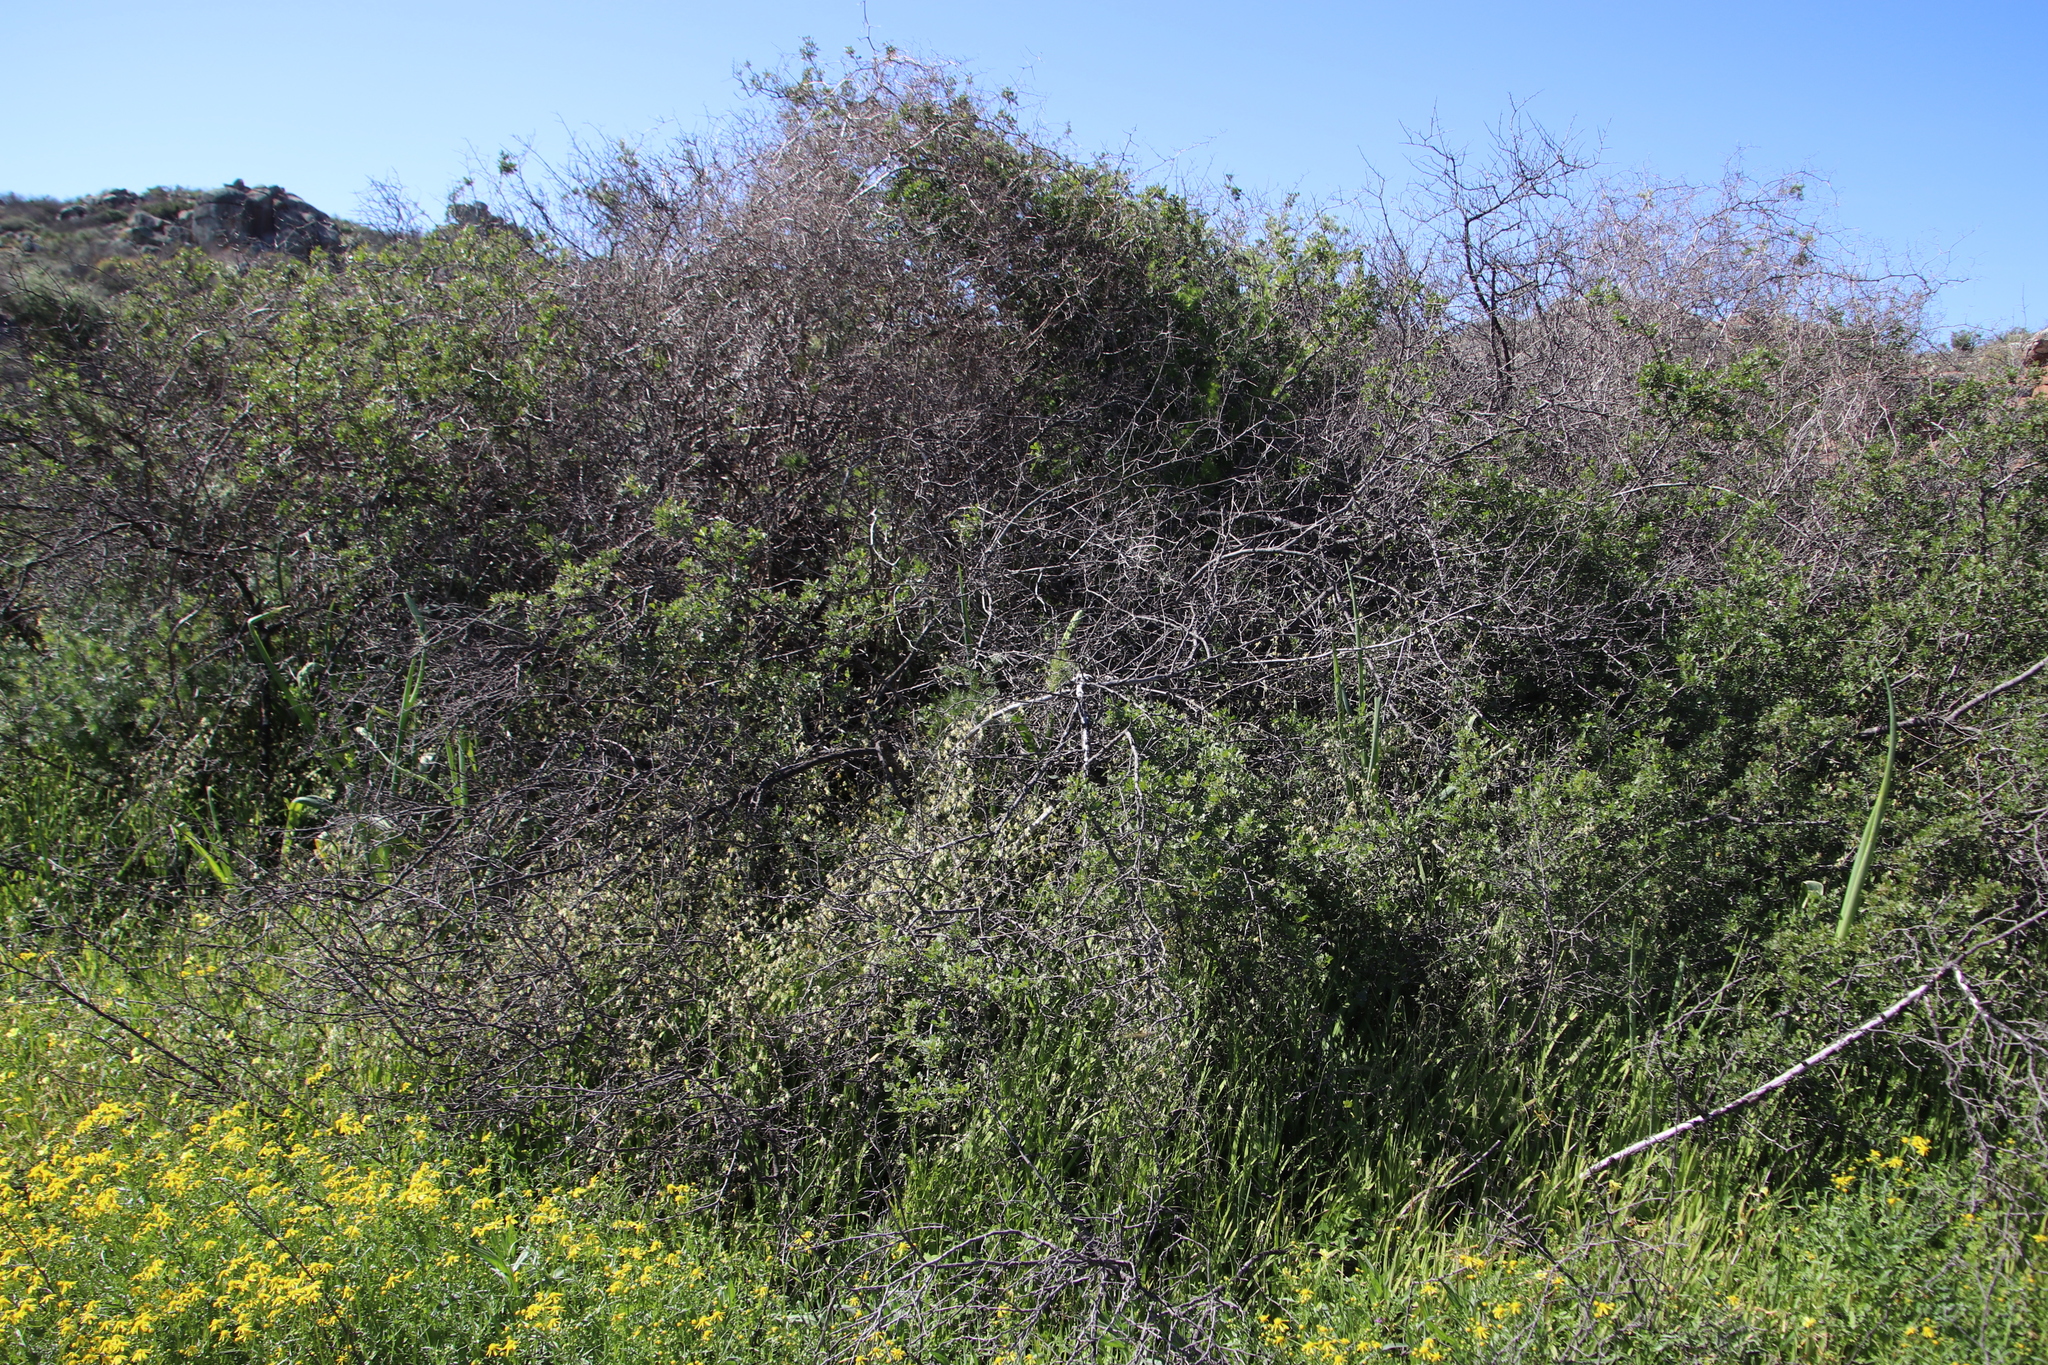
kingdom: Plantae
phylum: Tracheophyta
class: Liliopsida
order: Asparagales
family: Iridaceae
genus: Melasphaerula
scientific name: Melasphaerula graminea
